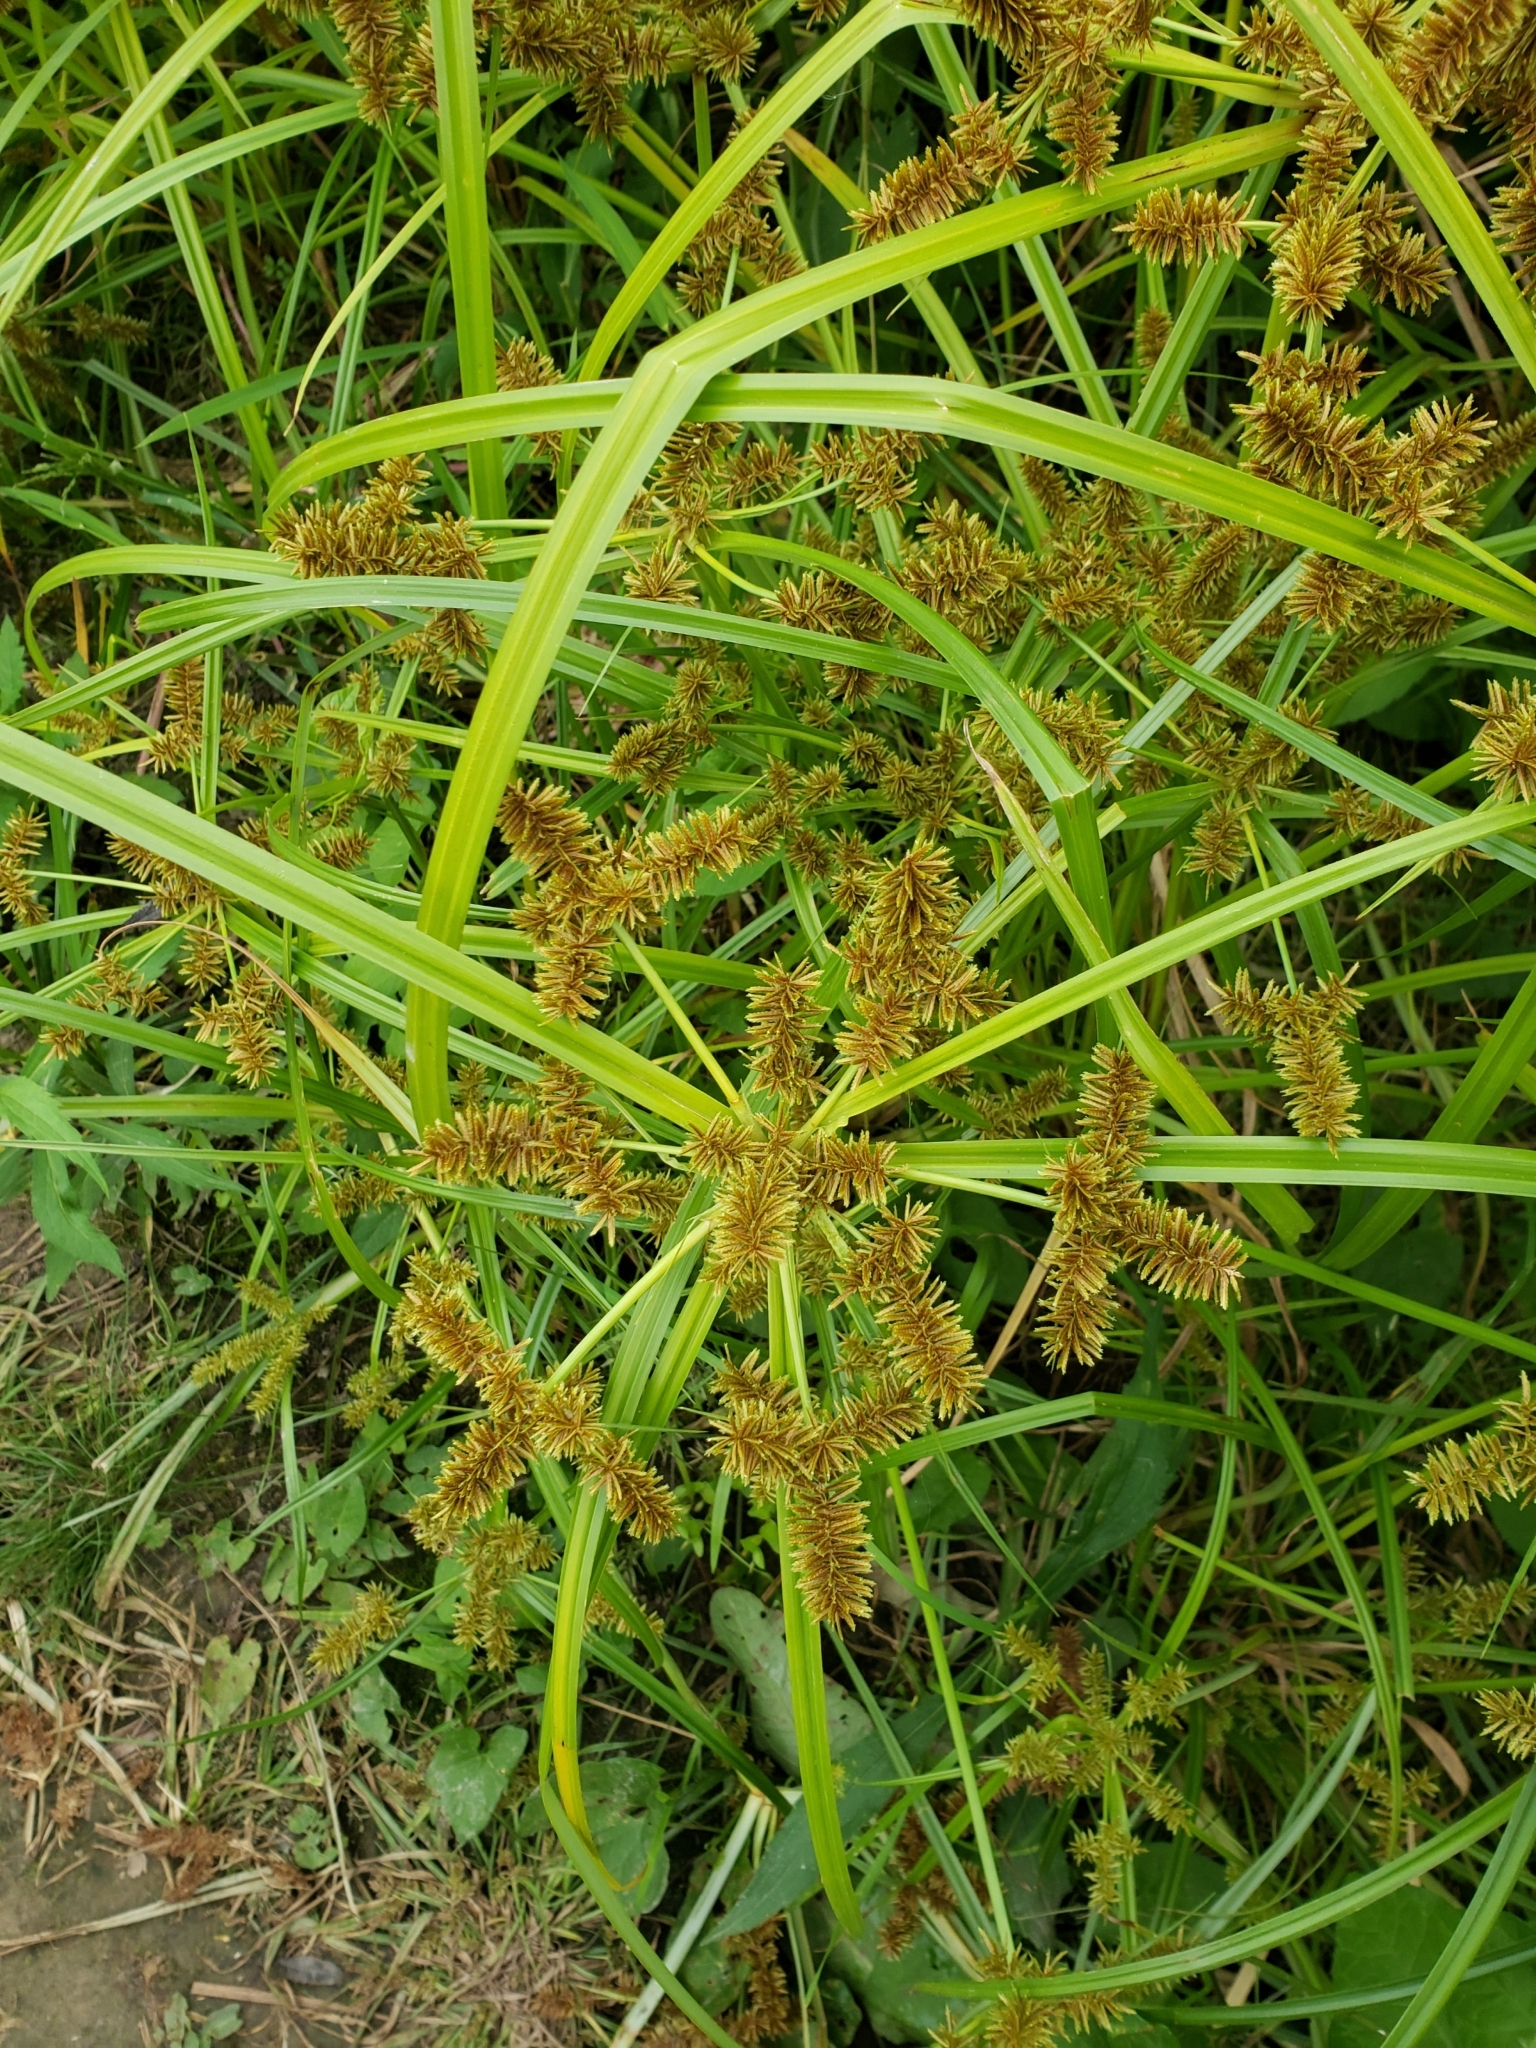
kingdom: Plantae
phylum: Tracheophyta
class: Liliopsida
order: Poales
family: Cyperaceae
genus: Cyperus
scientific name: Cyperus erythrorhizos
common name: Red-root flat sedge
